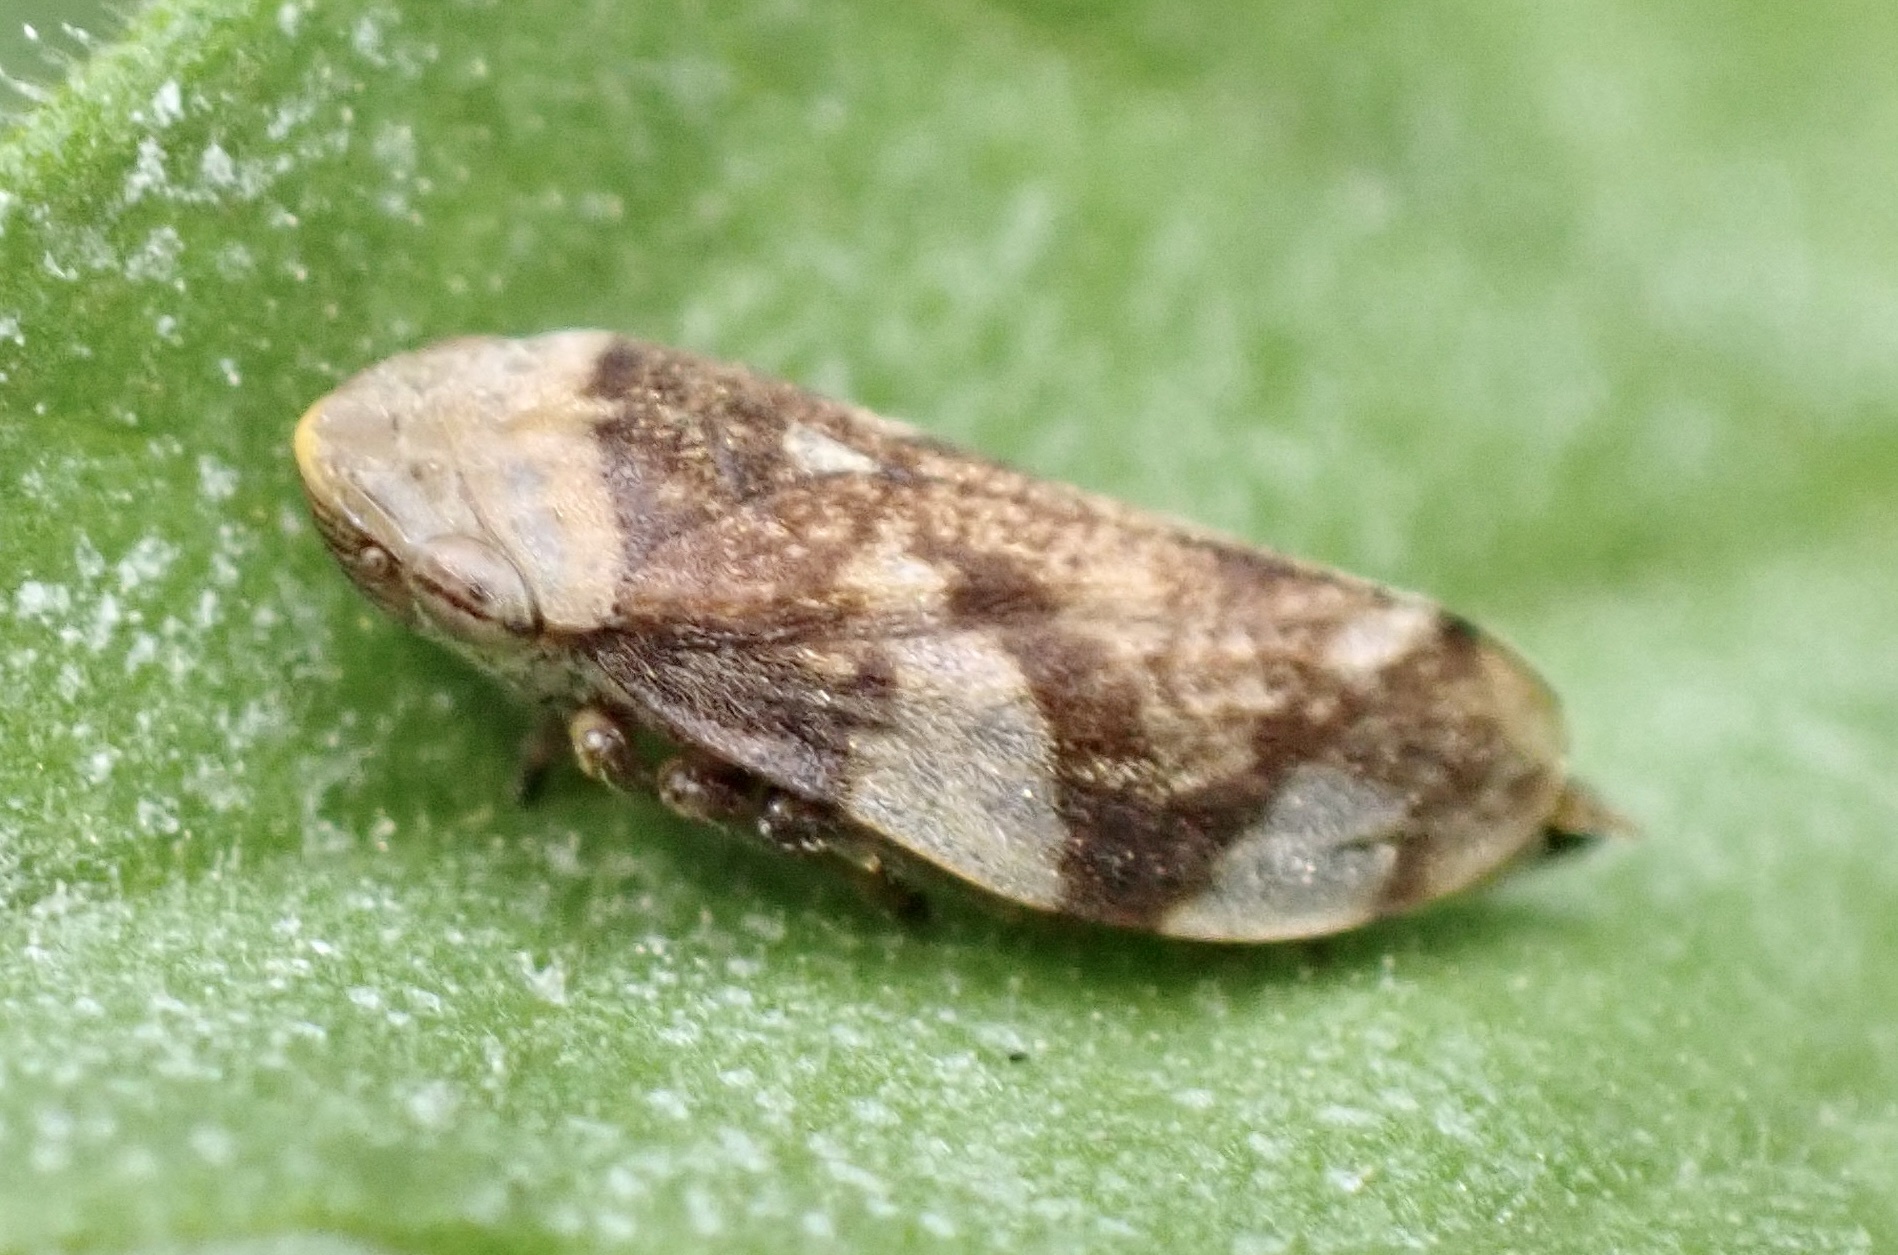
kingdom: Animalia
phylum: Arthropoda
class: Insecta
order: Hemiptera
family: Aphrophoridae
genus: Philaenus
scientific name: Philaenus spumarius
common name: Meadow spittlebug
